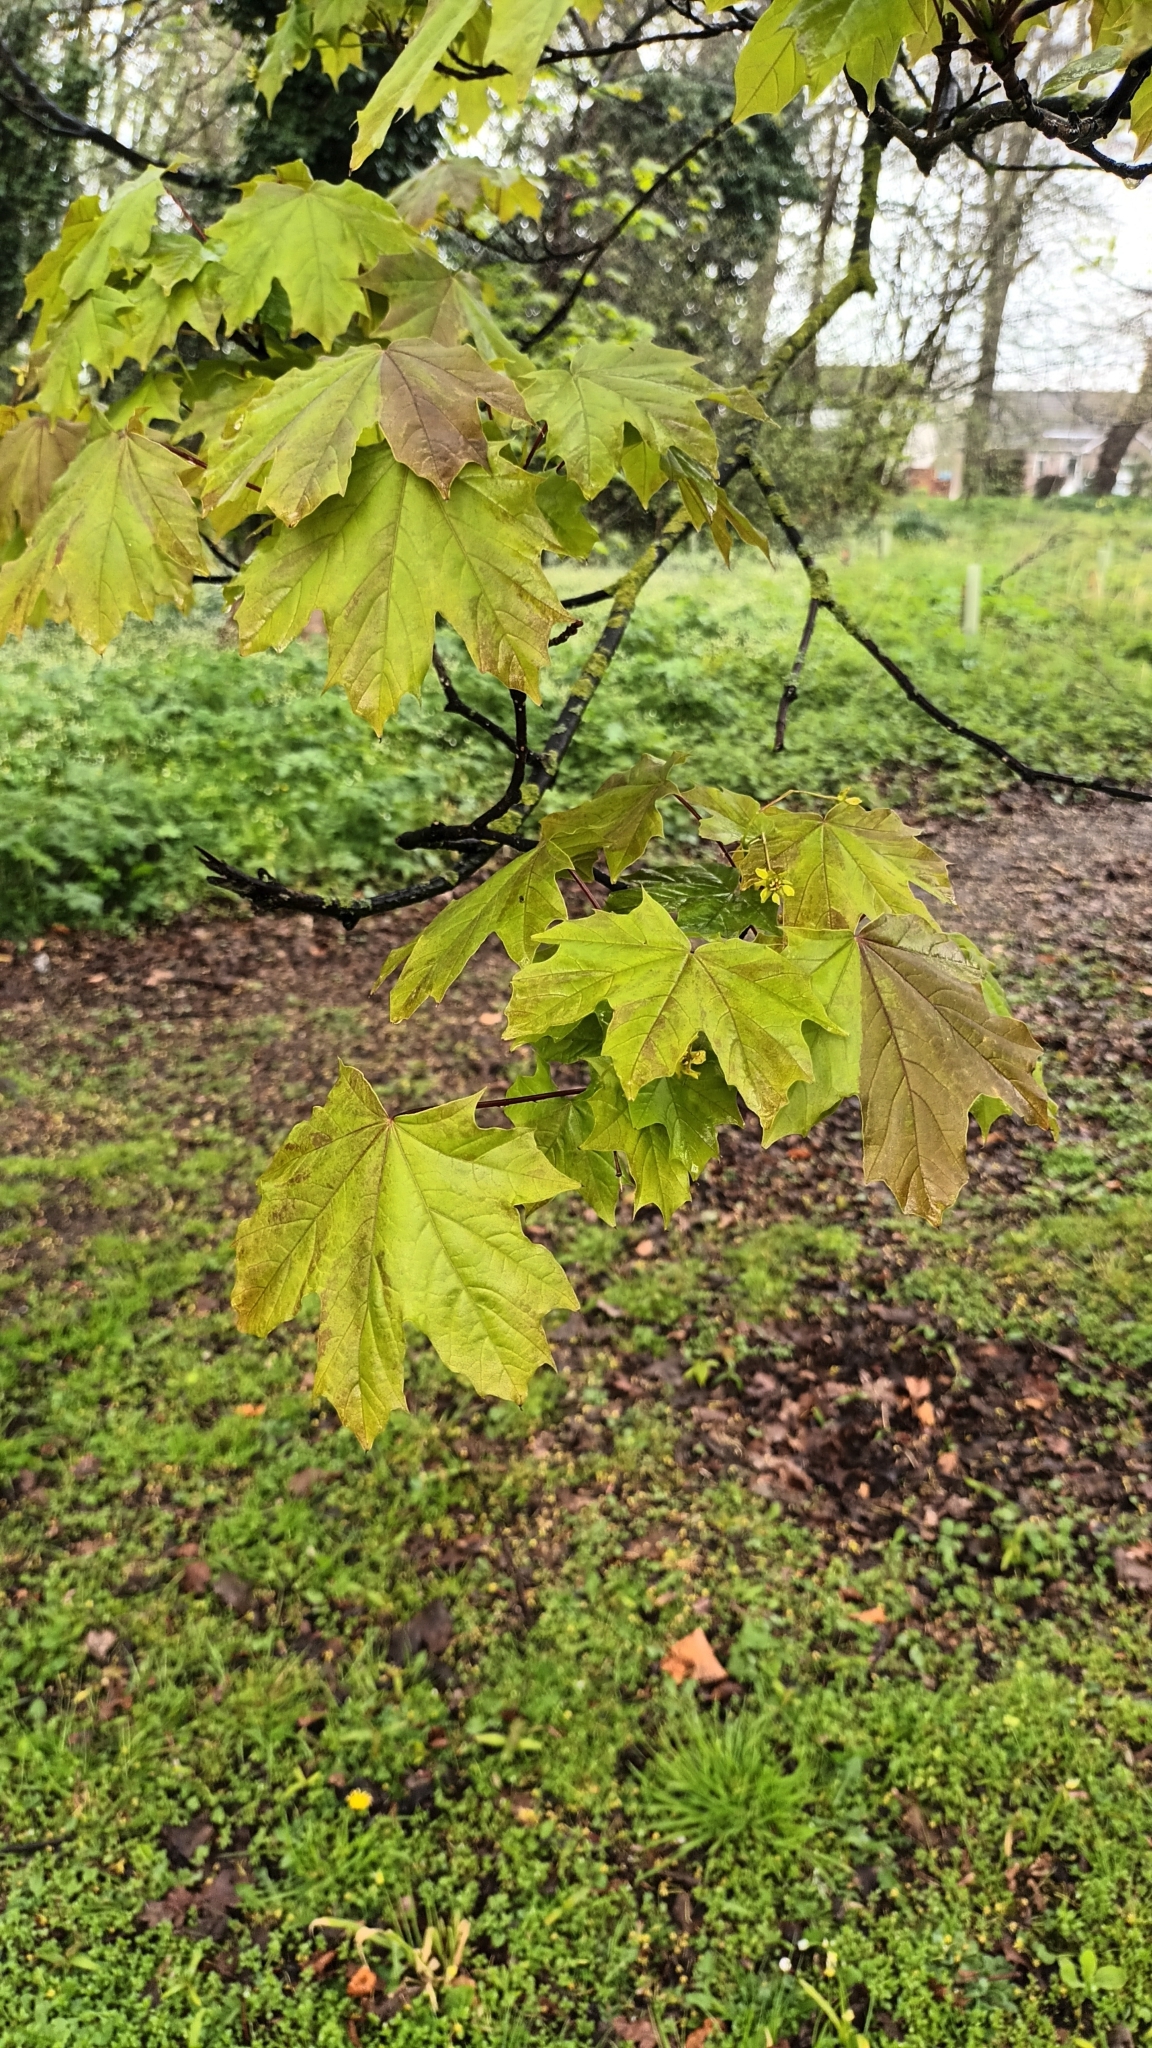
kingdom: Plantae
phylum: Tracheophyta
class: Magnoliopsida
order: Sapindales
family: Sapindaceae
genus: Acer
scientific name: Acer platanoides
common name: Norway maple
